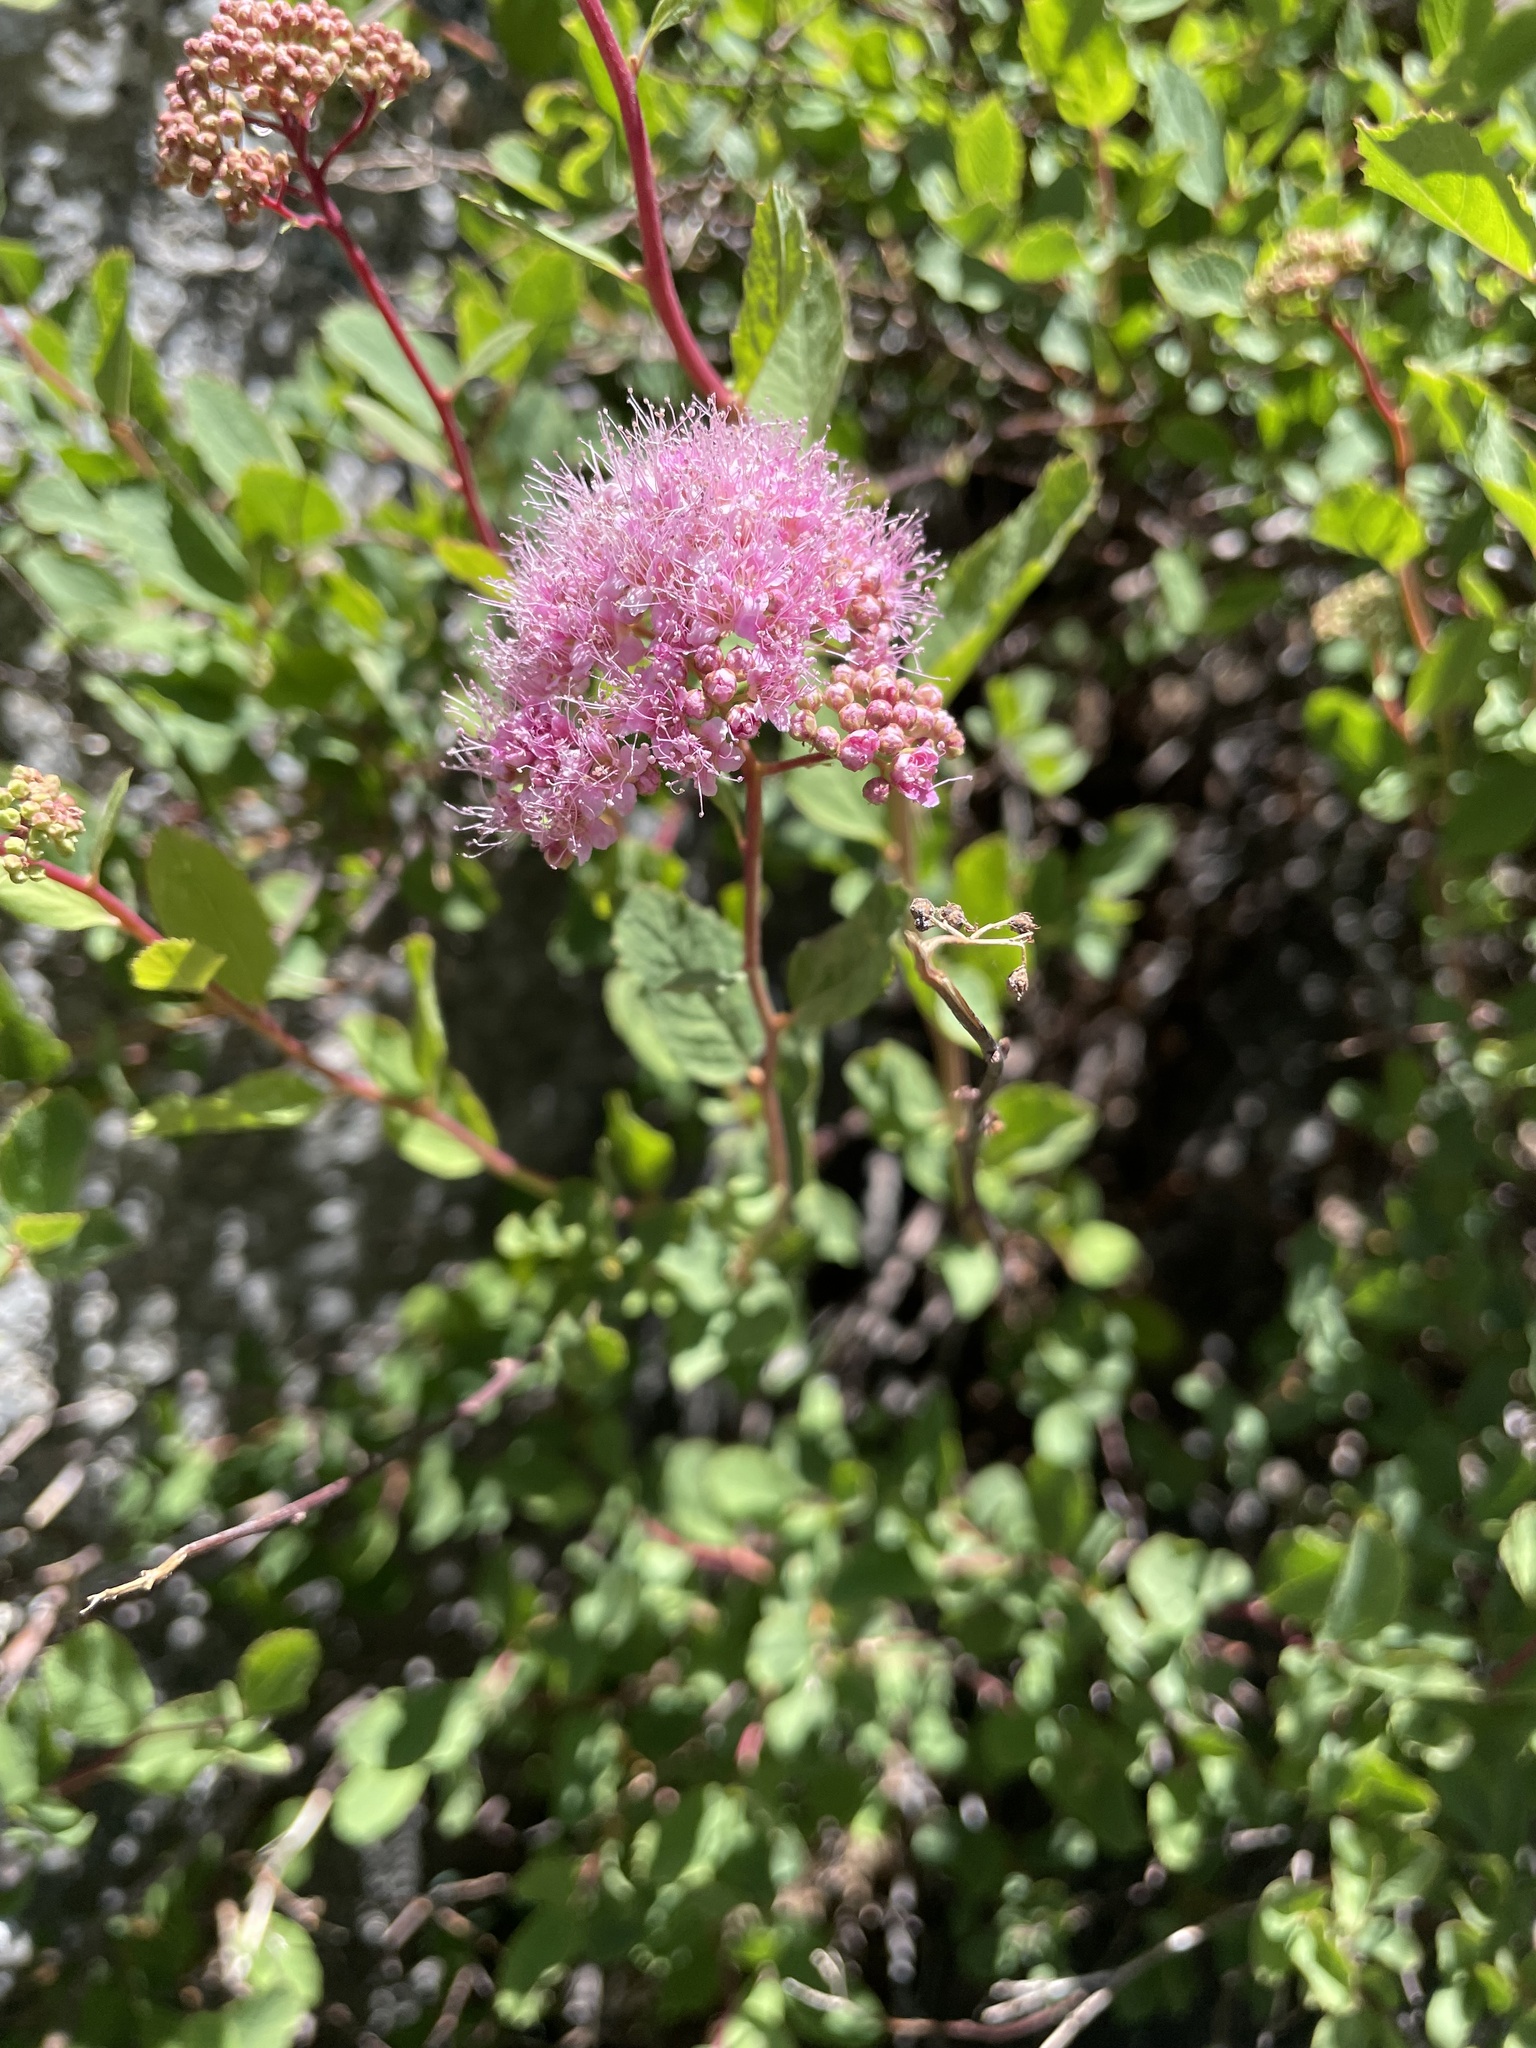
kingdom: Plantae
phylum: Tracheophyta
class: Magnoliopsida
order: Rosales
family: Rosaceae
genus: Spiraea
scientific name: Spiraea splendens
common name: Subalpine meadowsweet
